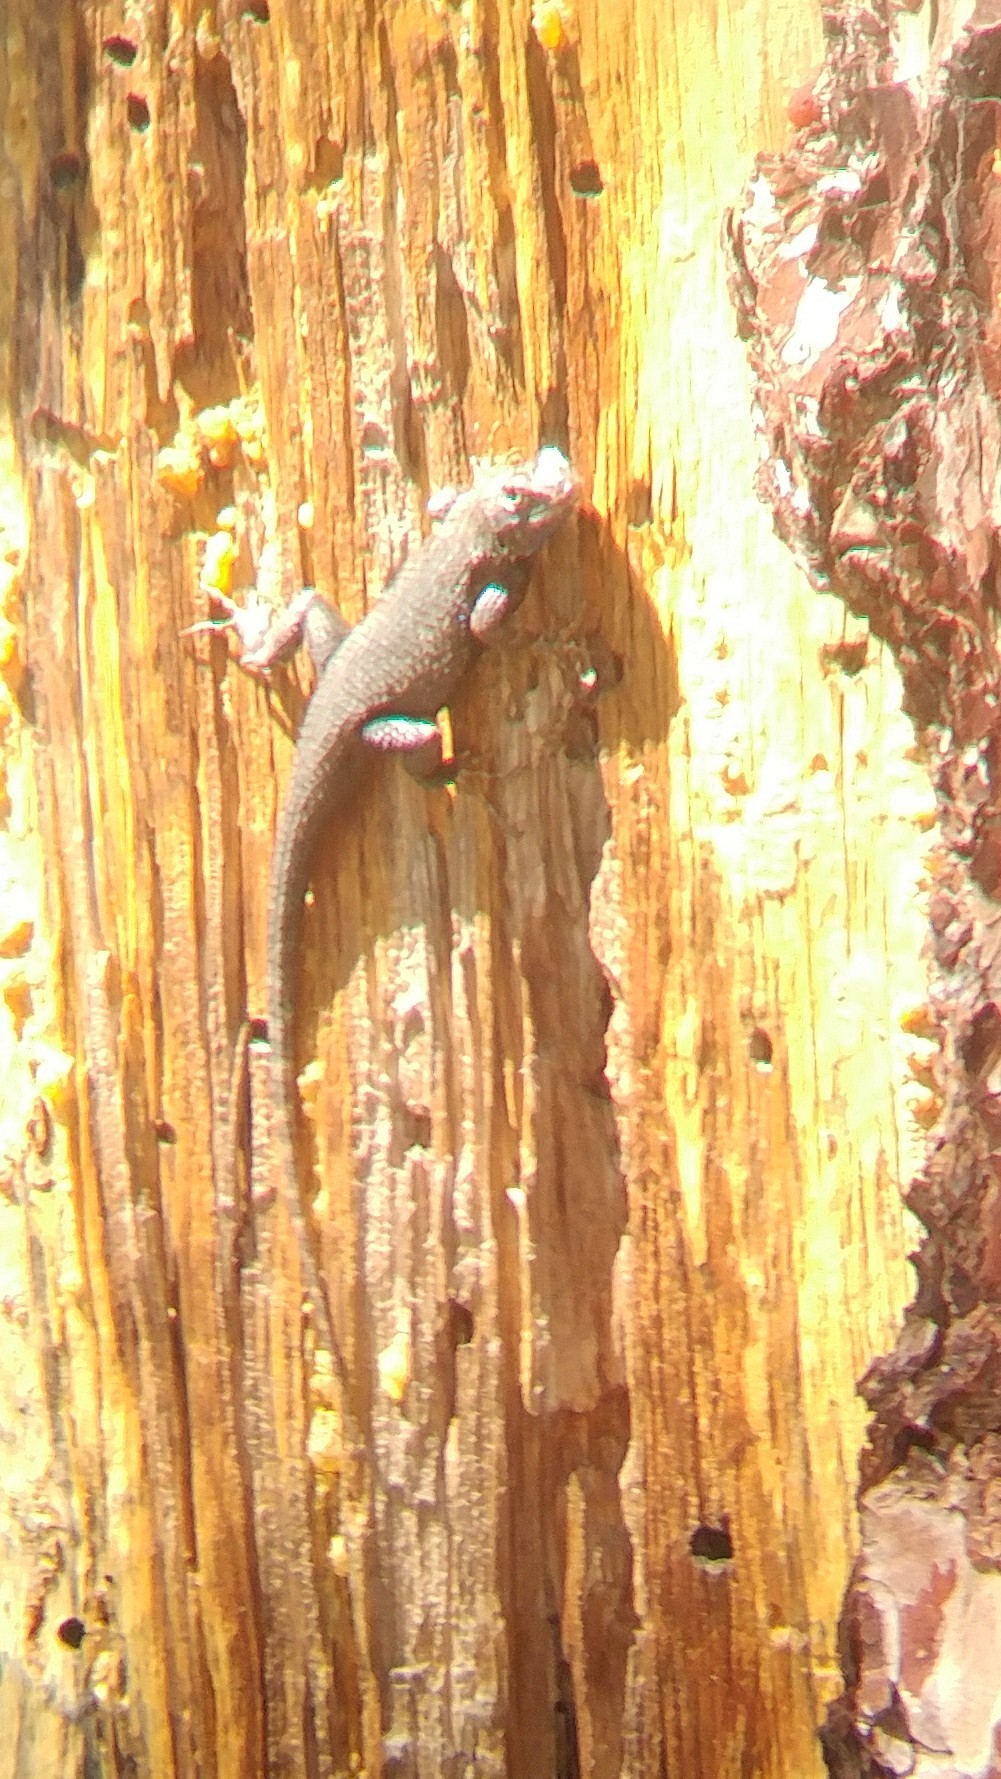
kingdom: Animalia
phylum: Chordata
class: Squamata
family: Phrynosomatidae
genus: Sceloporus
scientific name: Sceloporus occidentalis
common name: Western fence lizard
